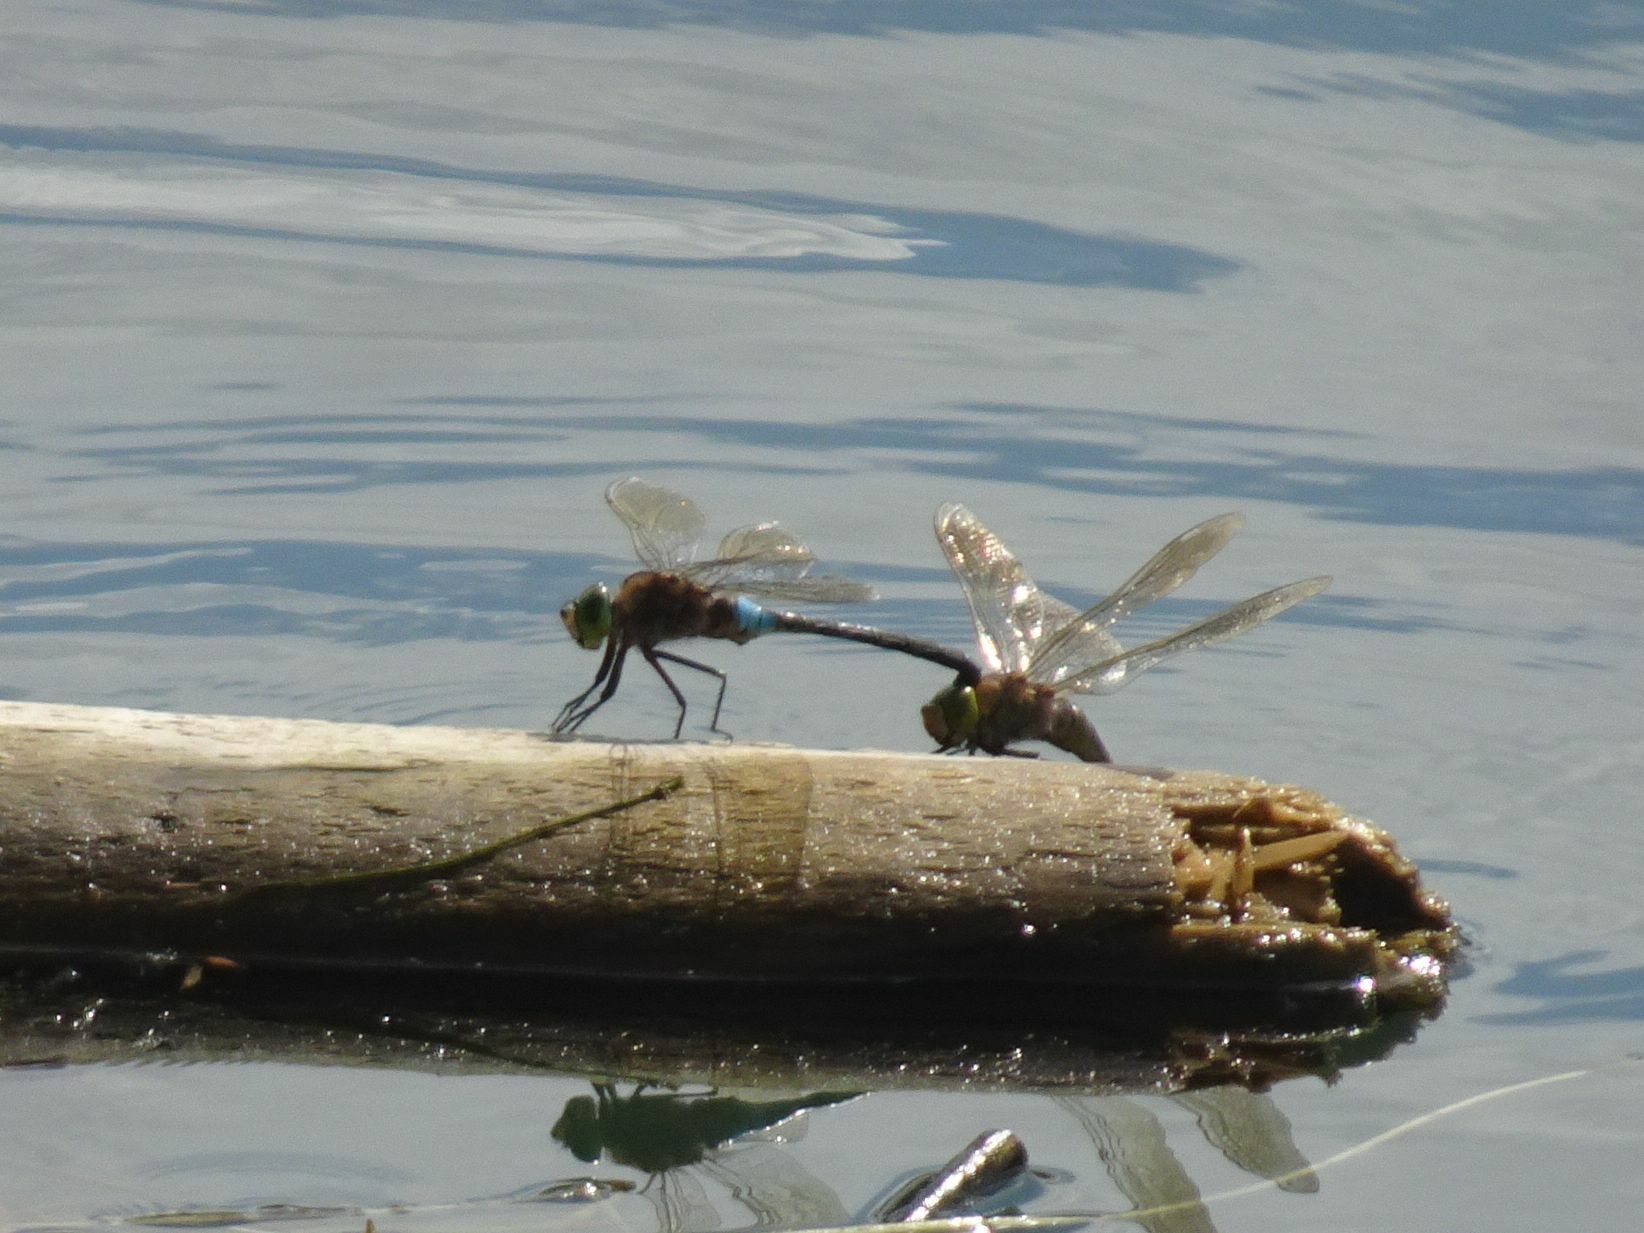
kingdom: Animalia
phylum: Arthropoda
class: Insecta
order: Odonata
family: Aeshnidae
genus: Anax
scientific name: Anax parthenope
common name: Lesser emperor
